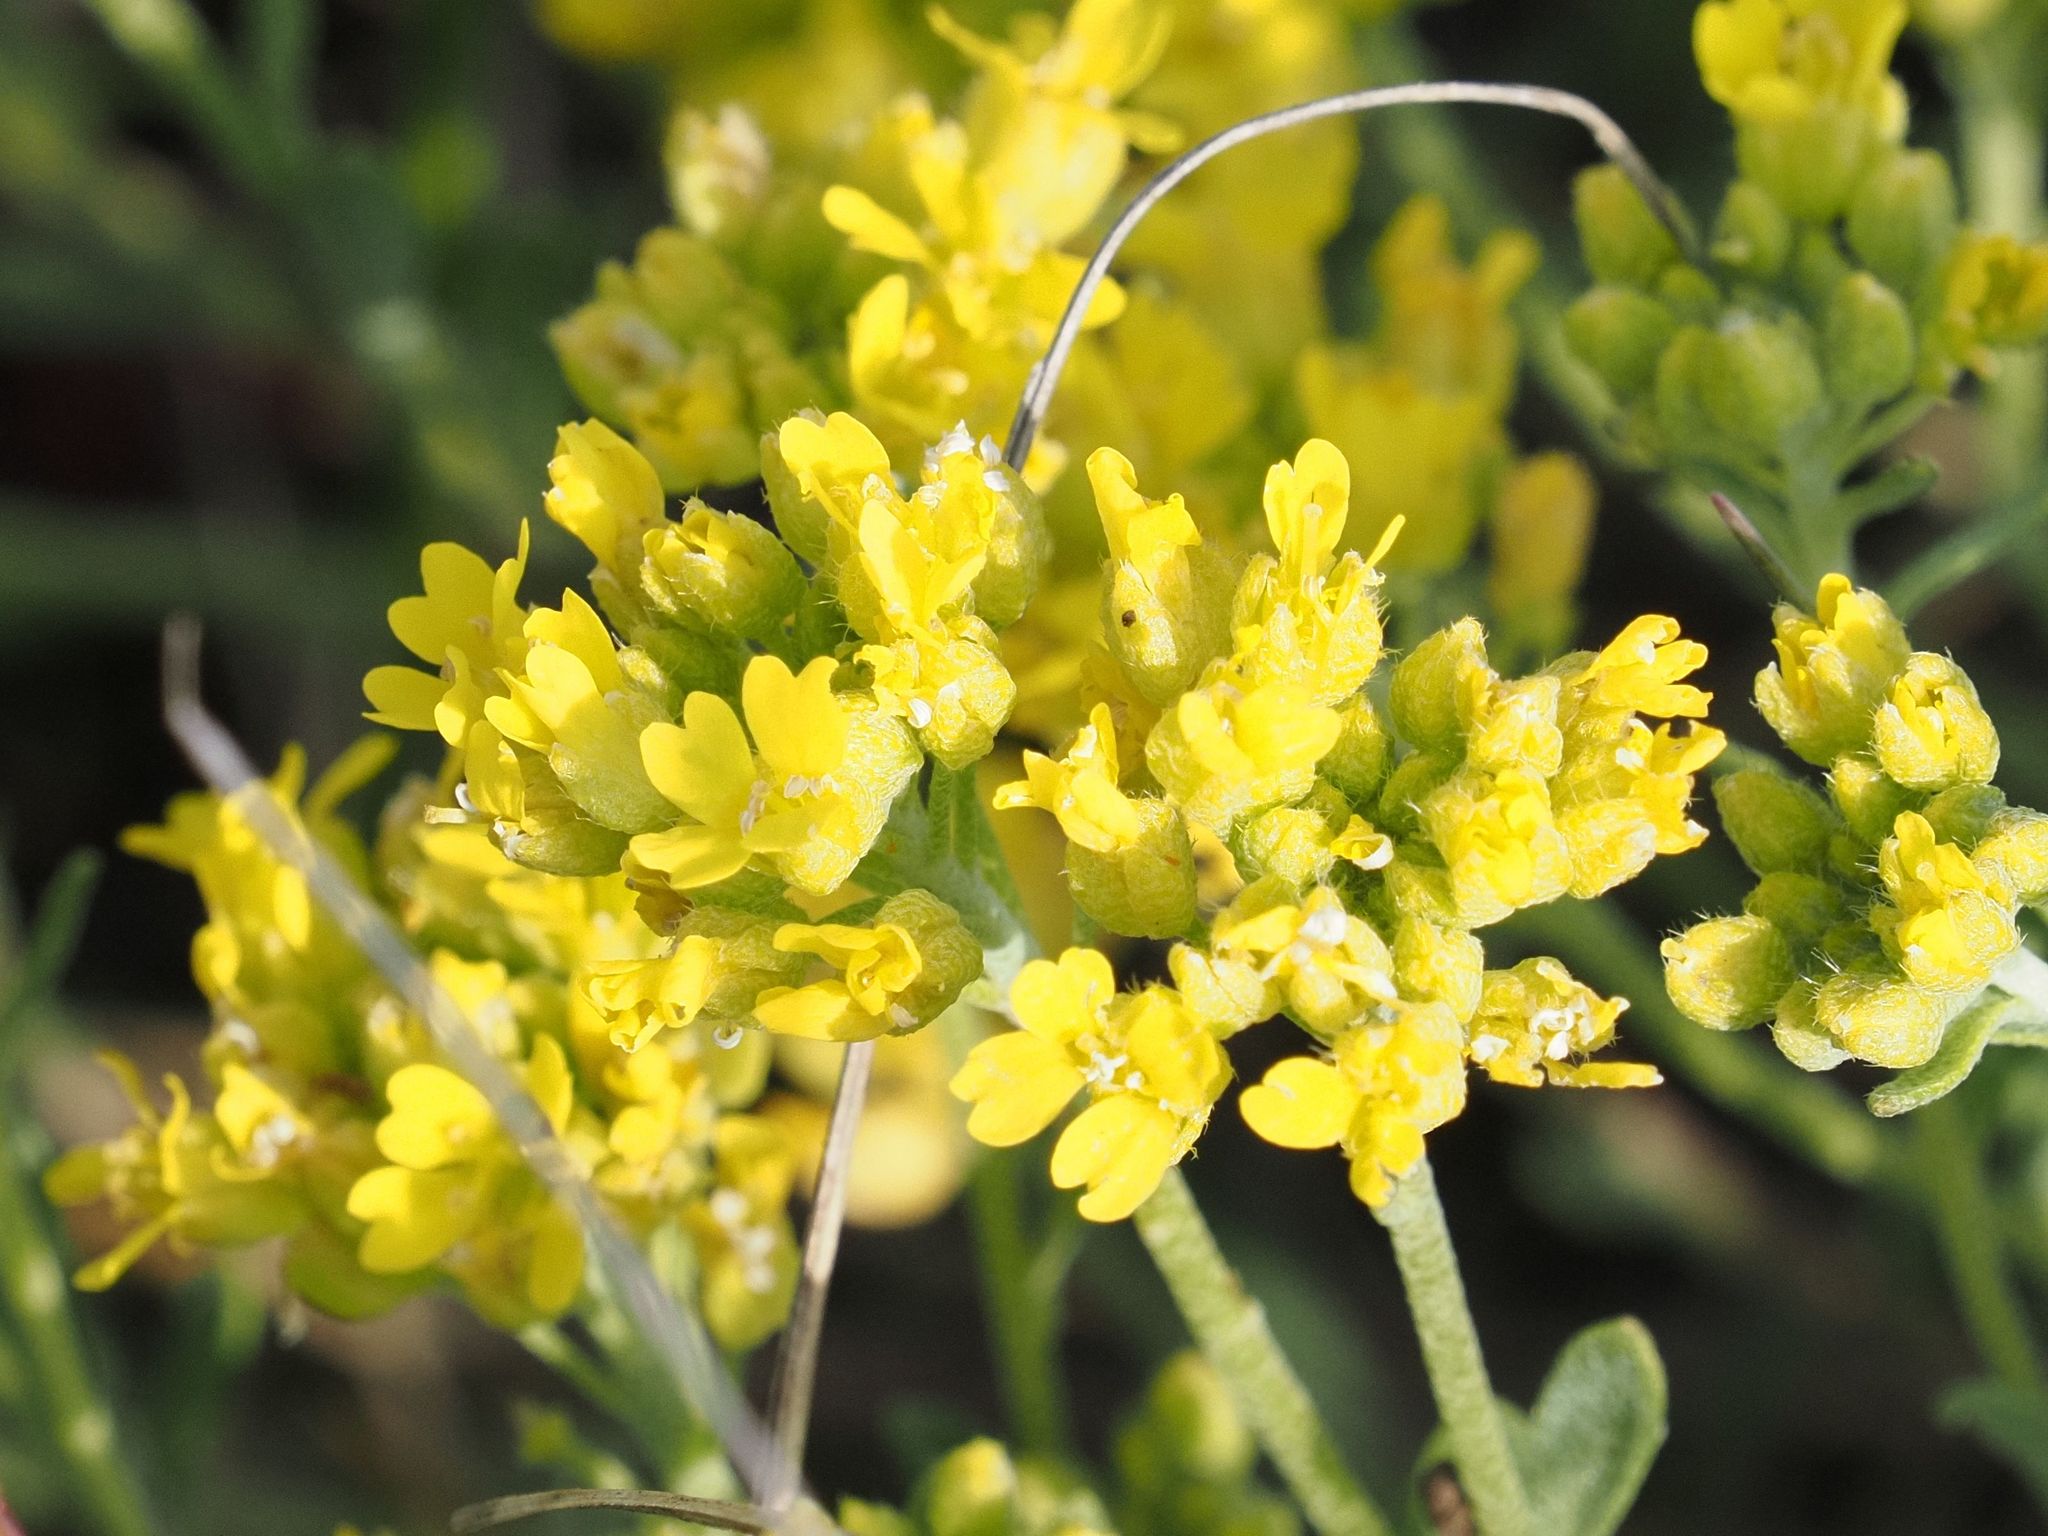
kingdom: Plantae
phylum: Tracheophyta
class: Magnoliopsida
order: Brassicales
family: Brassicaceae
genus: Alyssum
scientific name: Alyssum gmelinii
